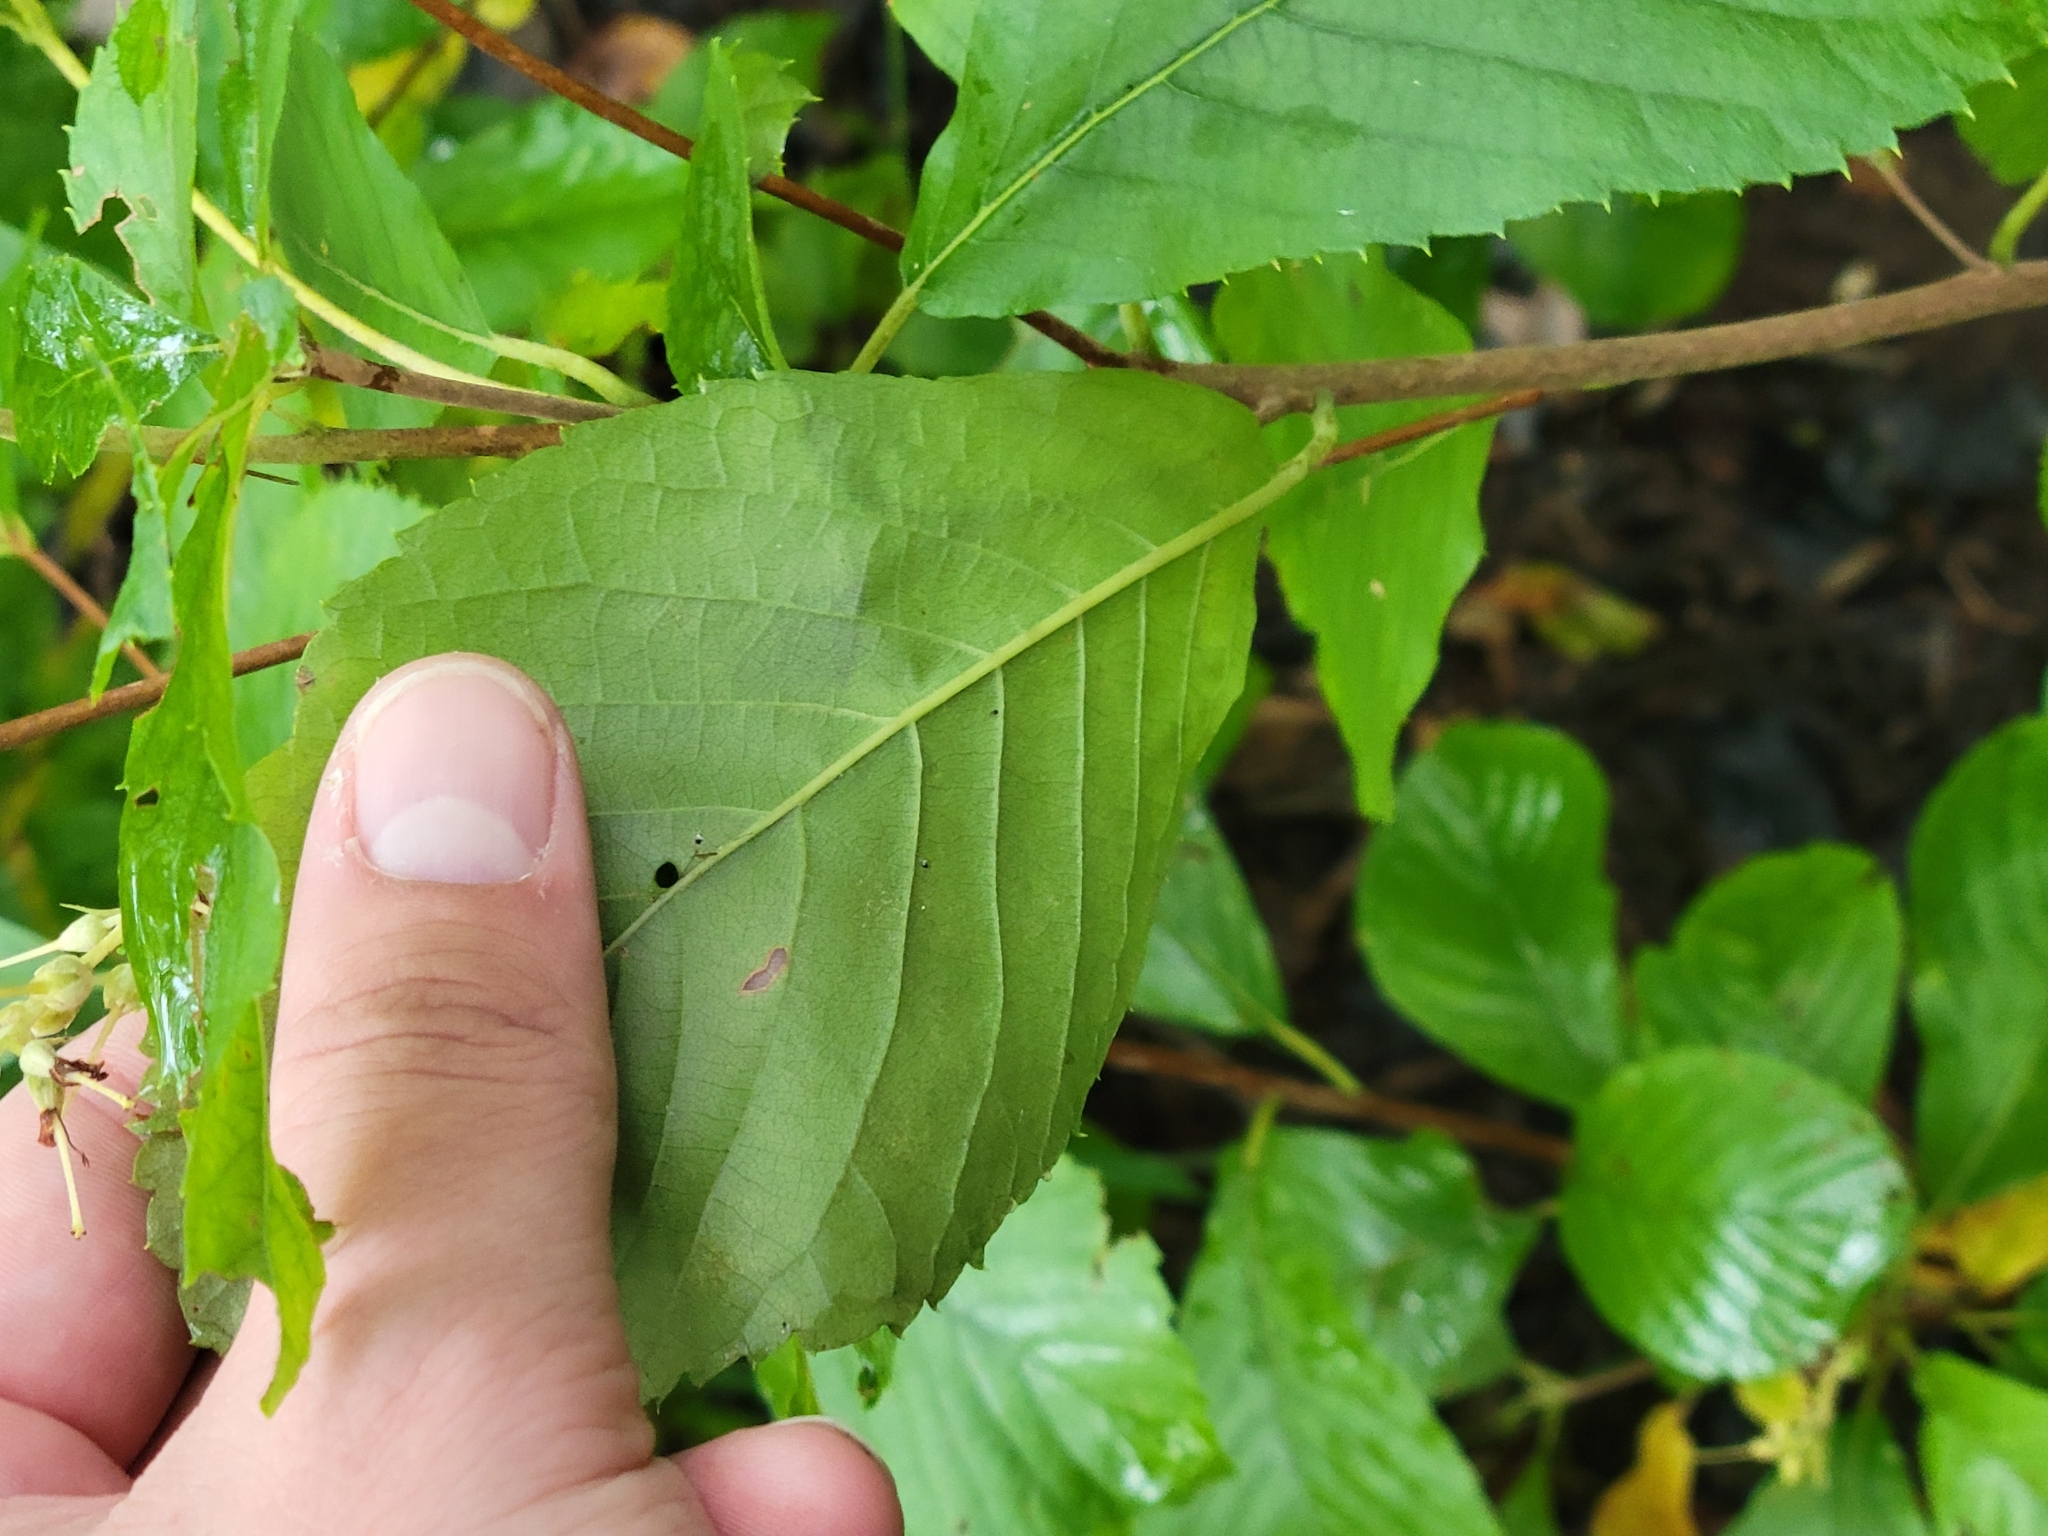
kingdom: Plantae
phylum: Tracheophyta
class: Magnoliopsida
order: Ericales
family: Clethraceae
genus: Clethra
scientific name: Clethra alnifolia
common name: Sweet pepperbush
